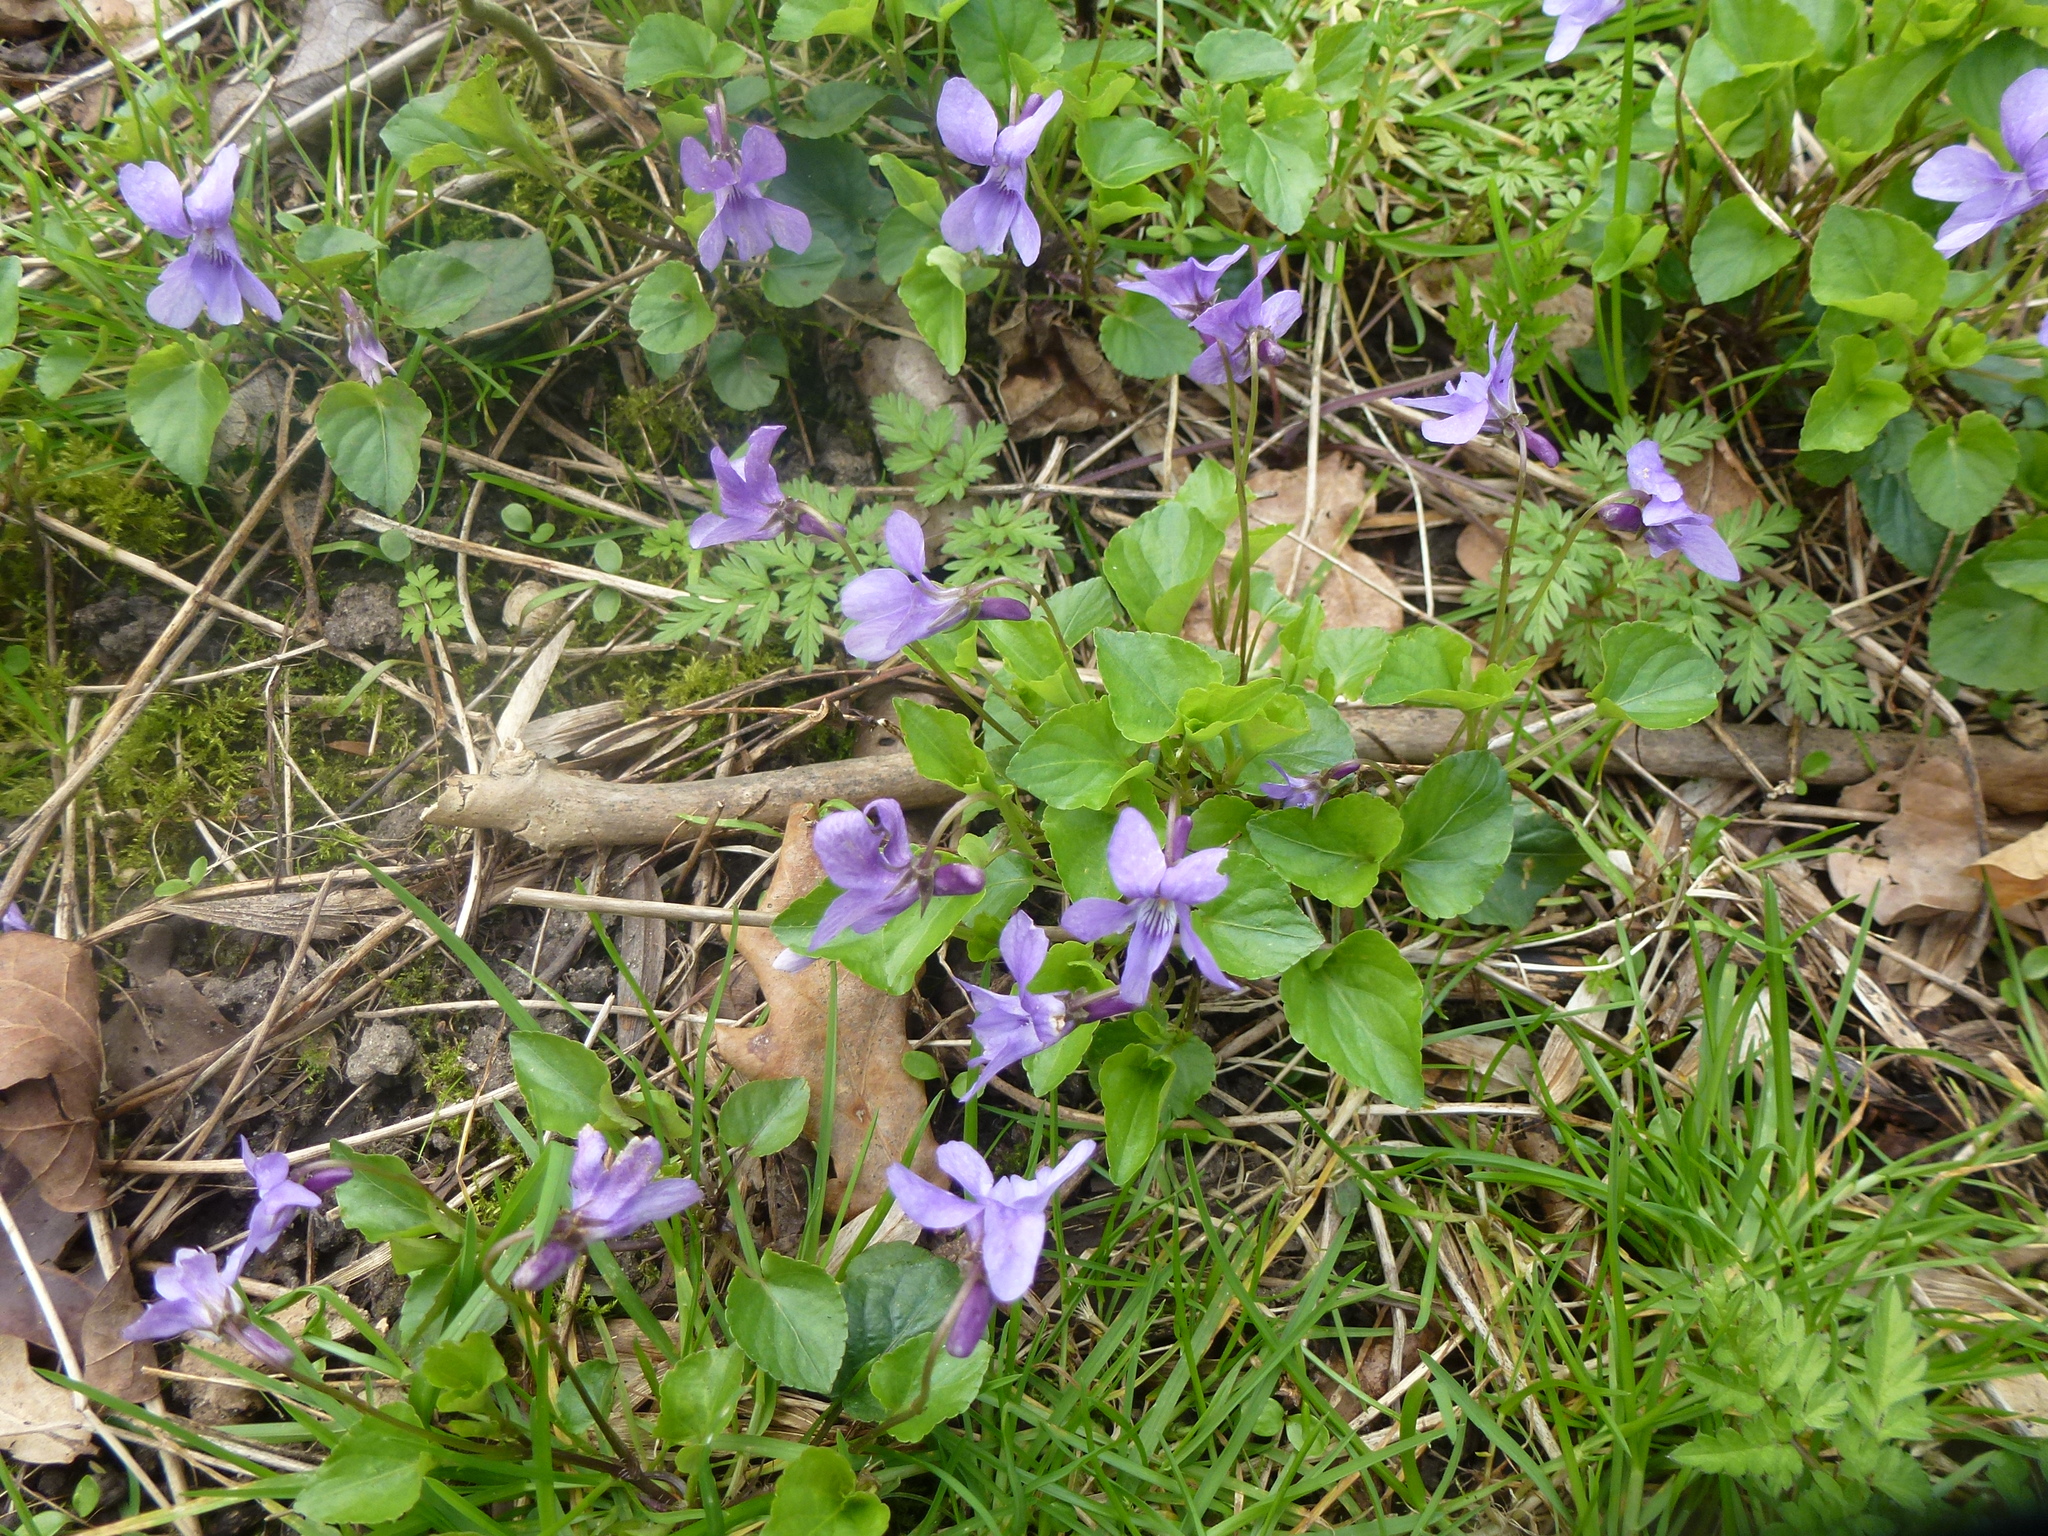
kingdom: Plantae
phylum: Tracheophyta
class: Magnoliopsida
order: Malpighiales
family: Violaceae
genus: Viola
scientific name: Viola reichenbachiana
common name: Early dog-violet
